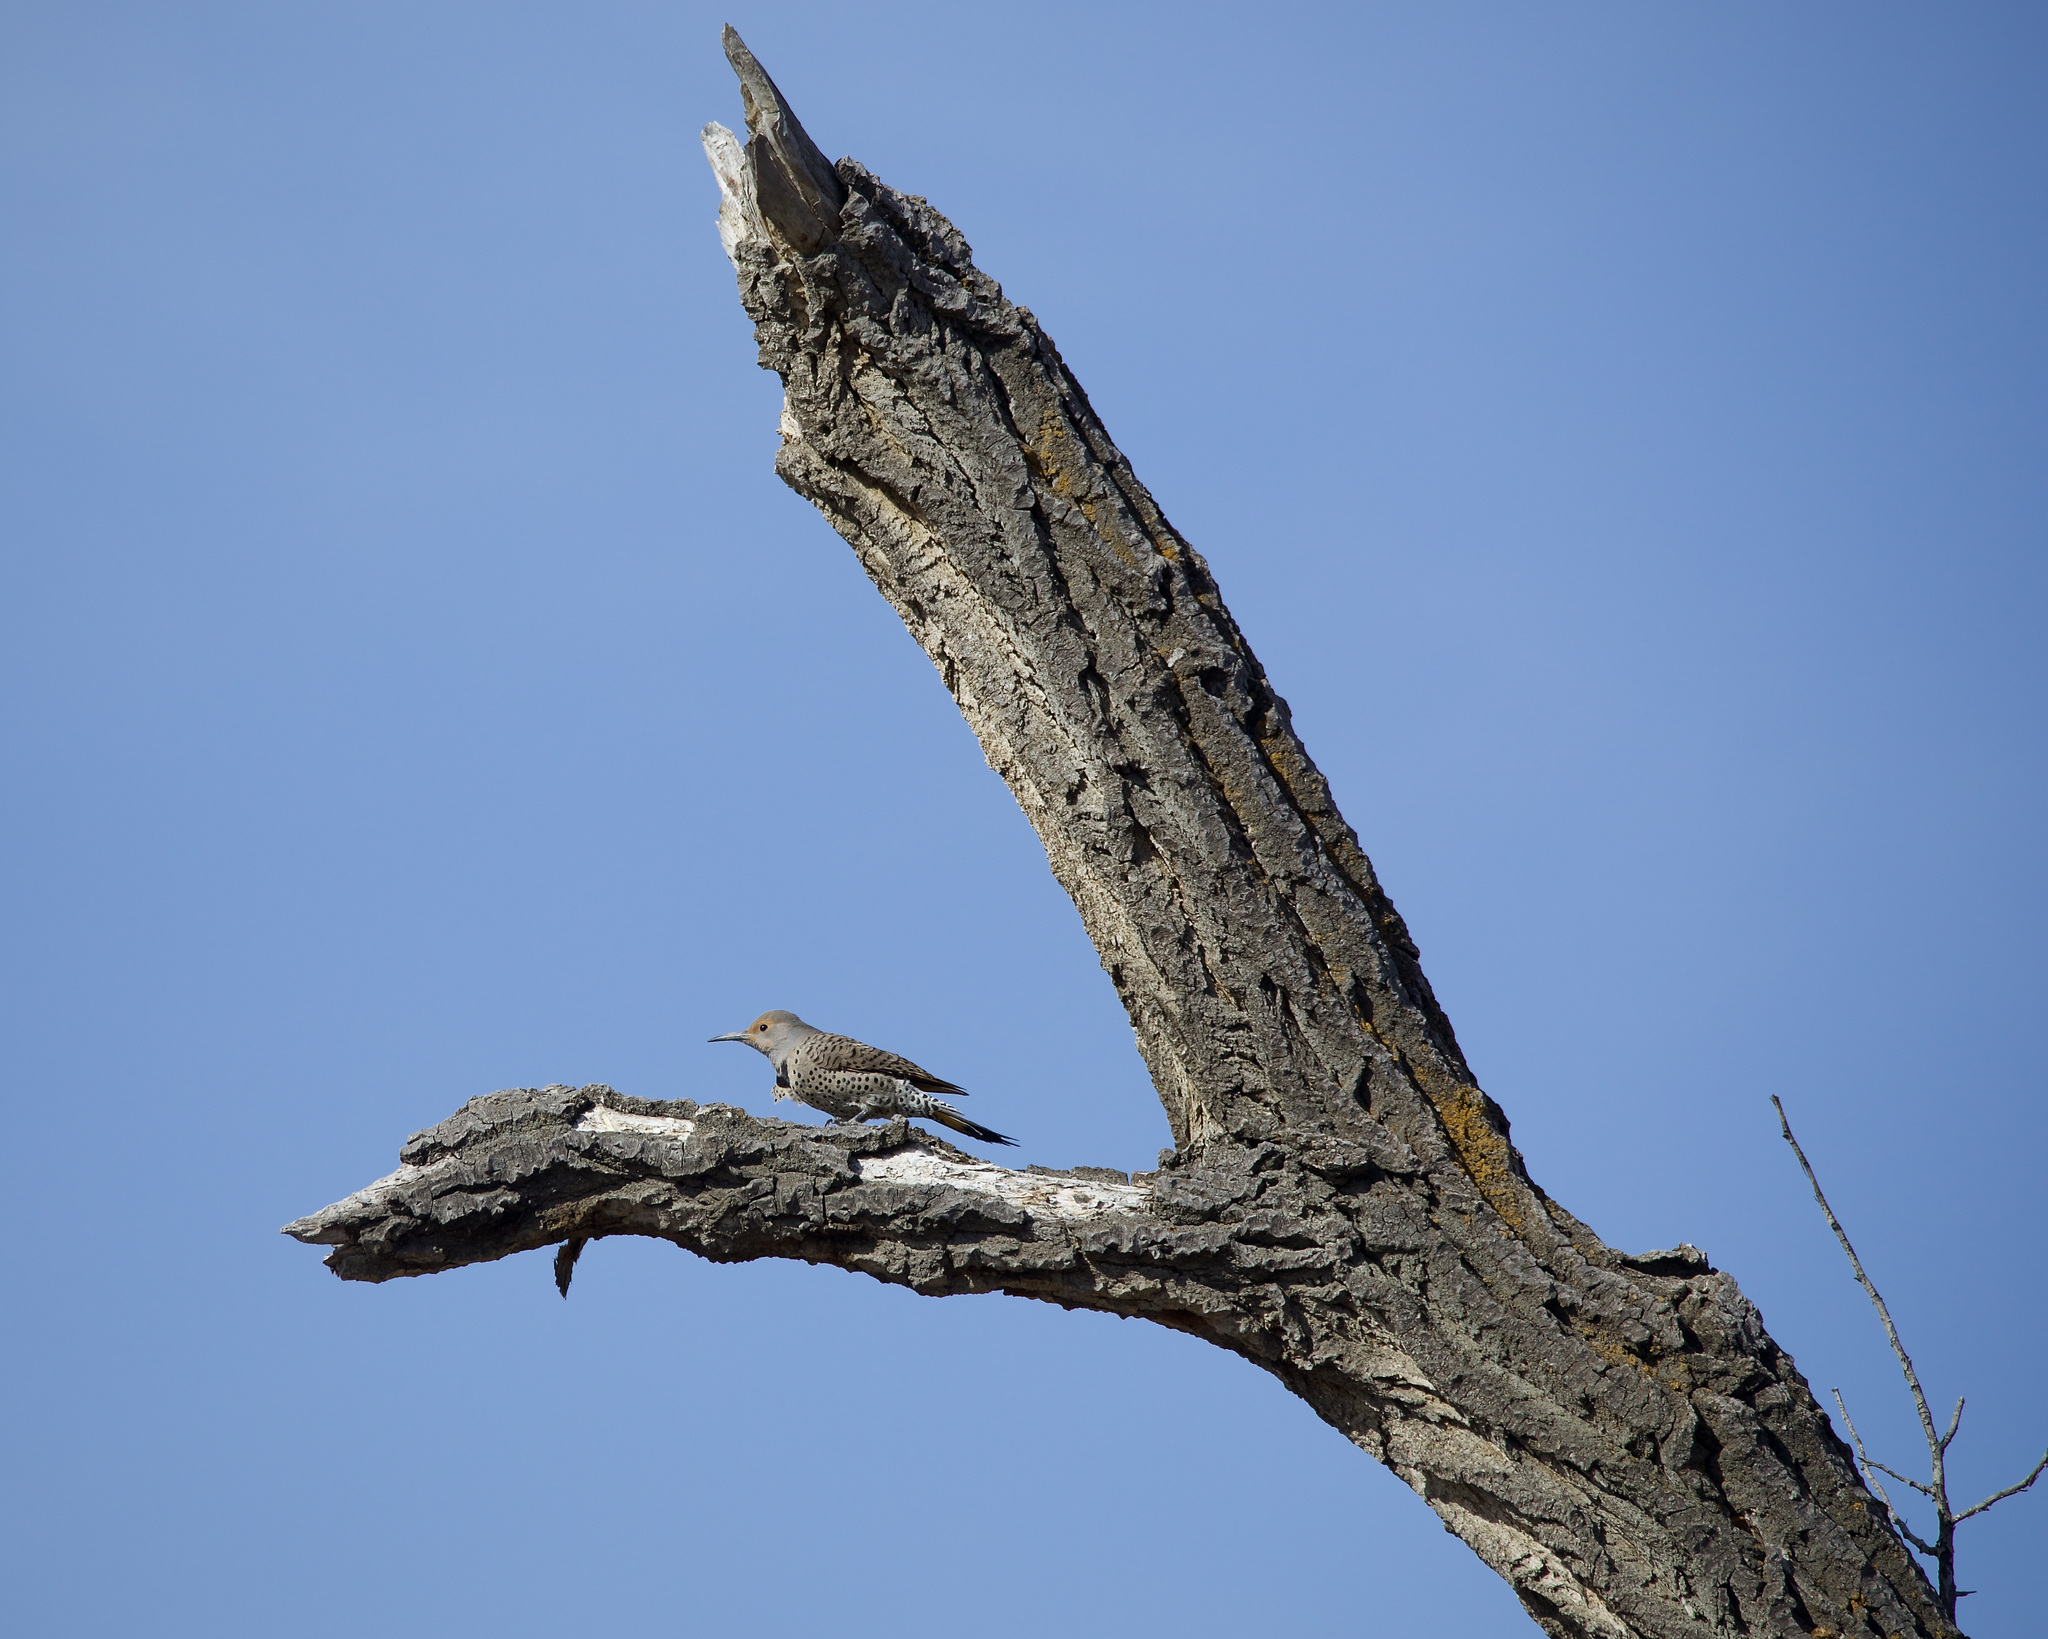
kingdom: Animalia
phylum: Chordata
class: Aves
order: Piciformes
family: Picidae
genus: Colaptes
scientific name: Colaptes auratus
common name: Northern flicker
